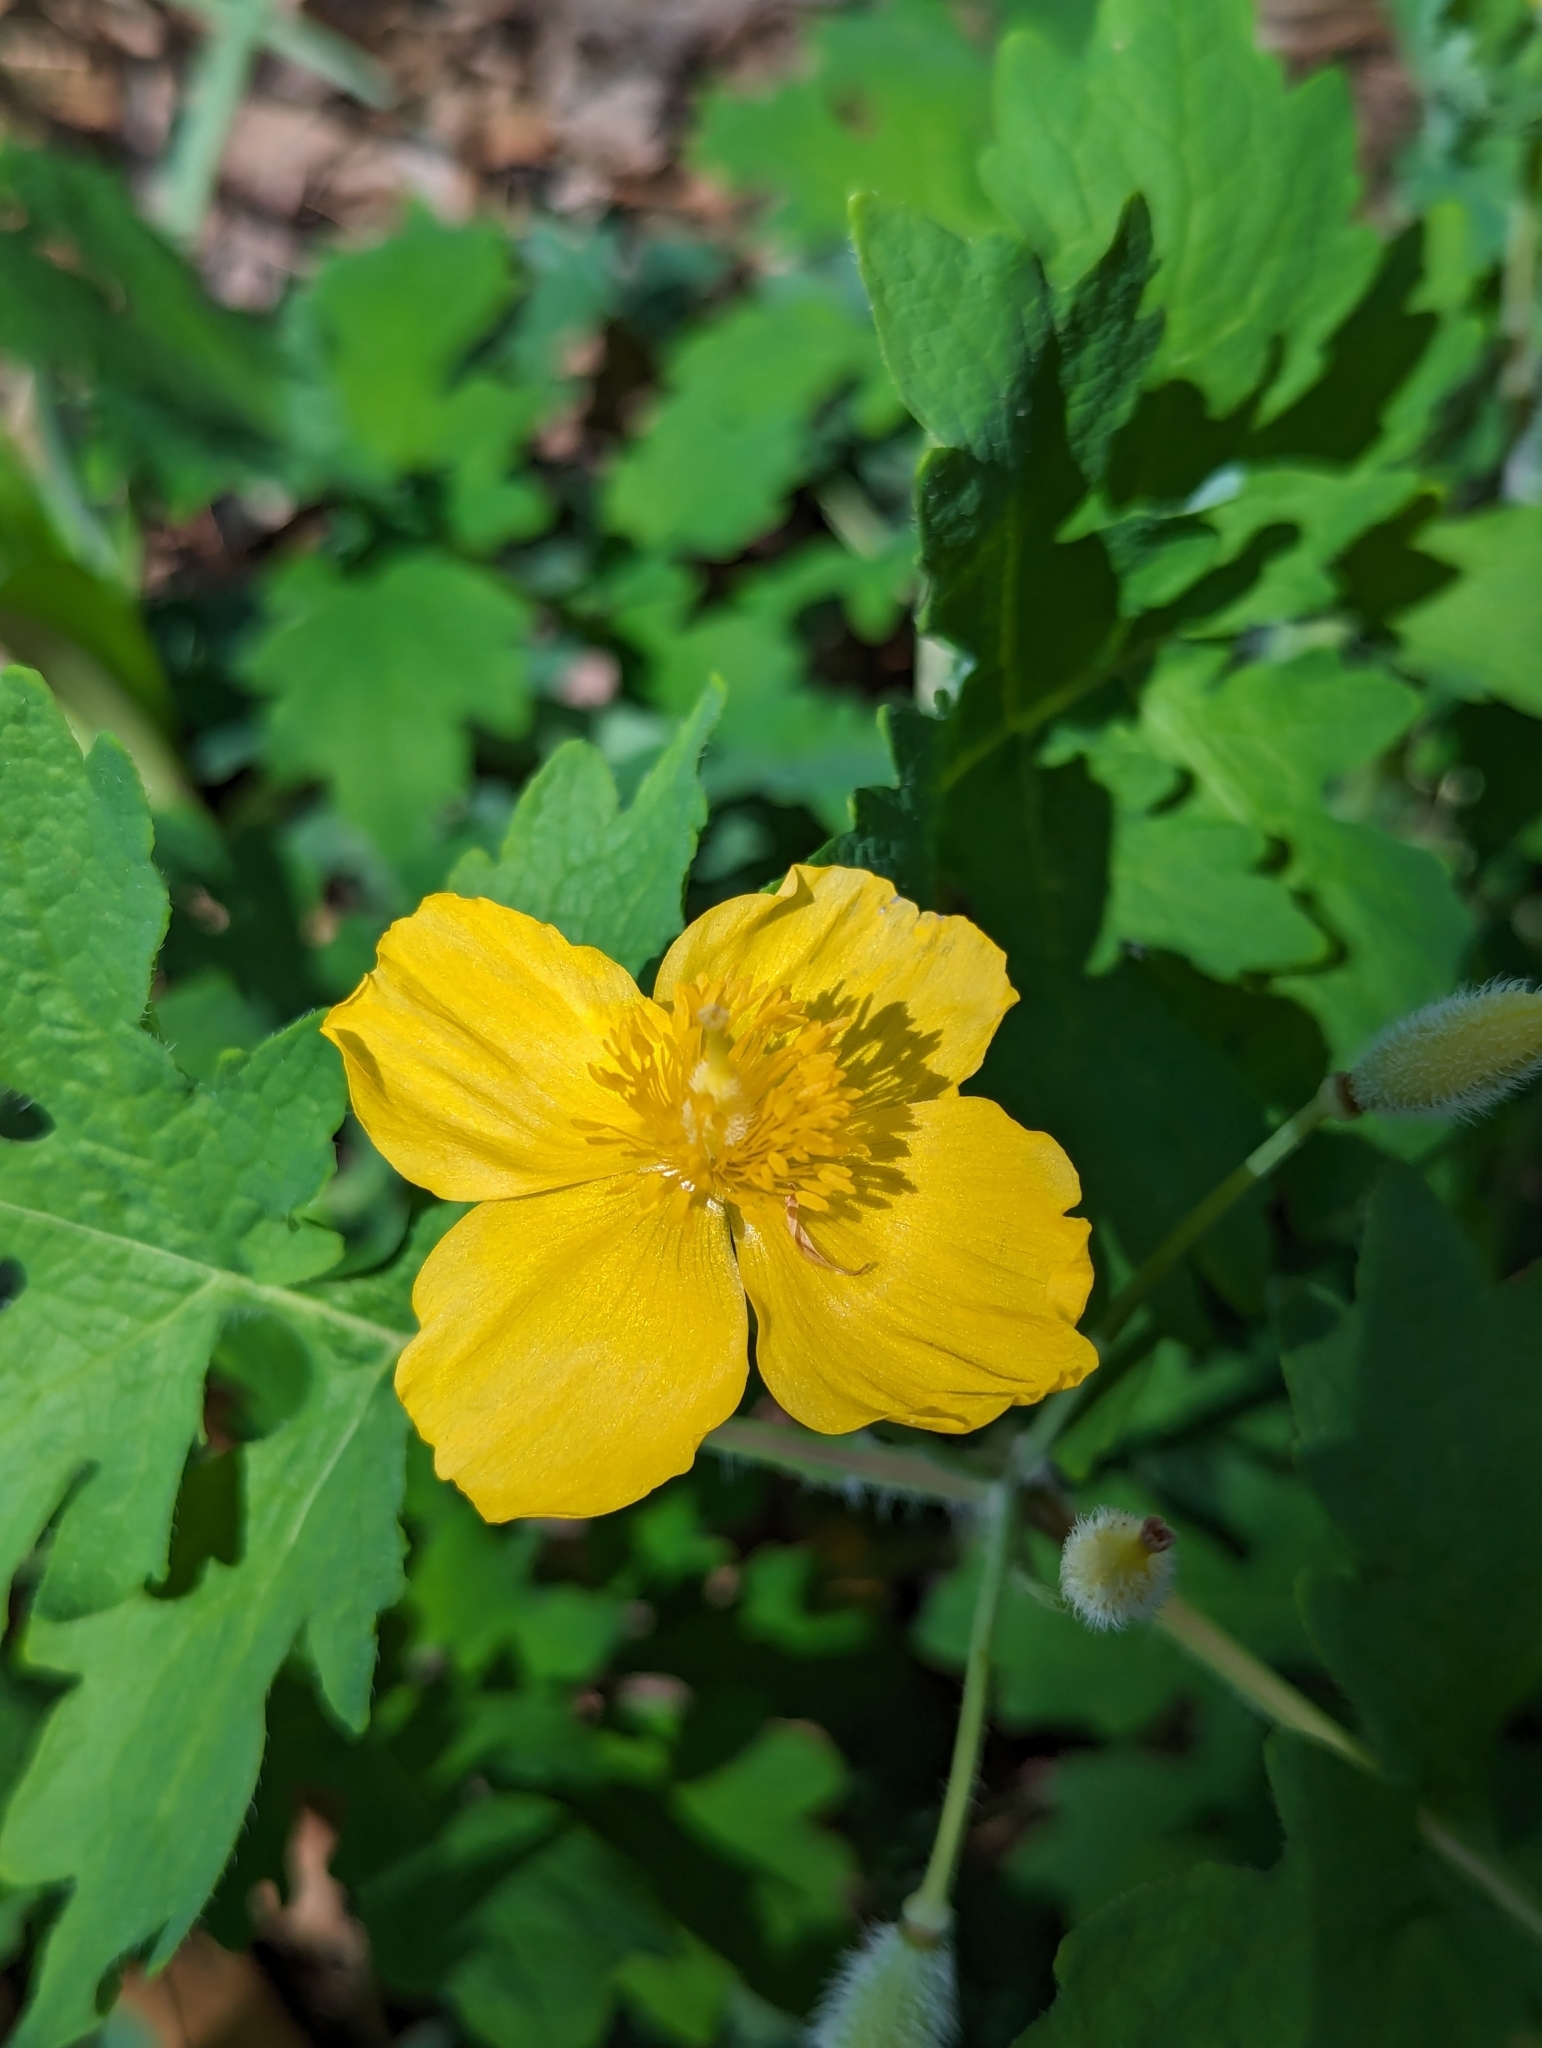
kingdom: Plantae
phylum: Tracheophyta
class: Magnoliopsida
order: Ranunculales
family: Papaveraceae
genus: Stylophorum
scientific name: Stylophorum diphyllum
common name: Celandine poppy
